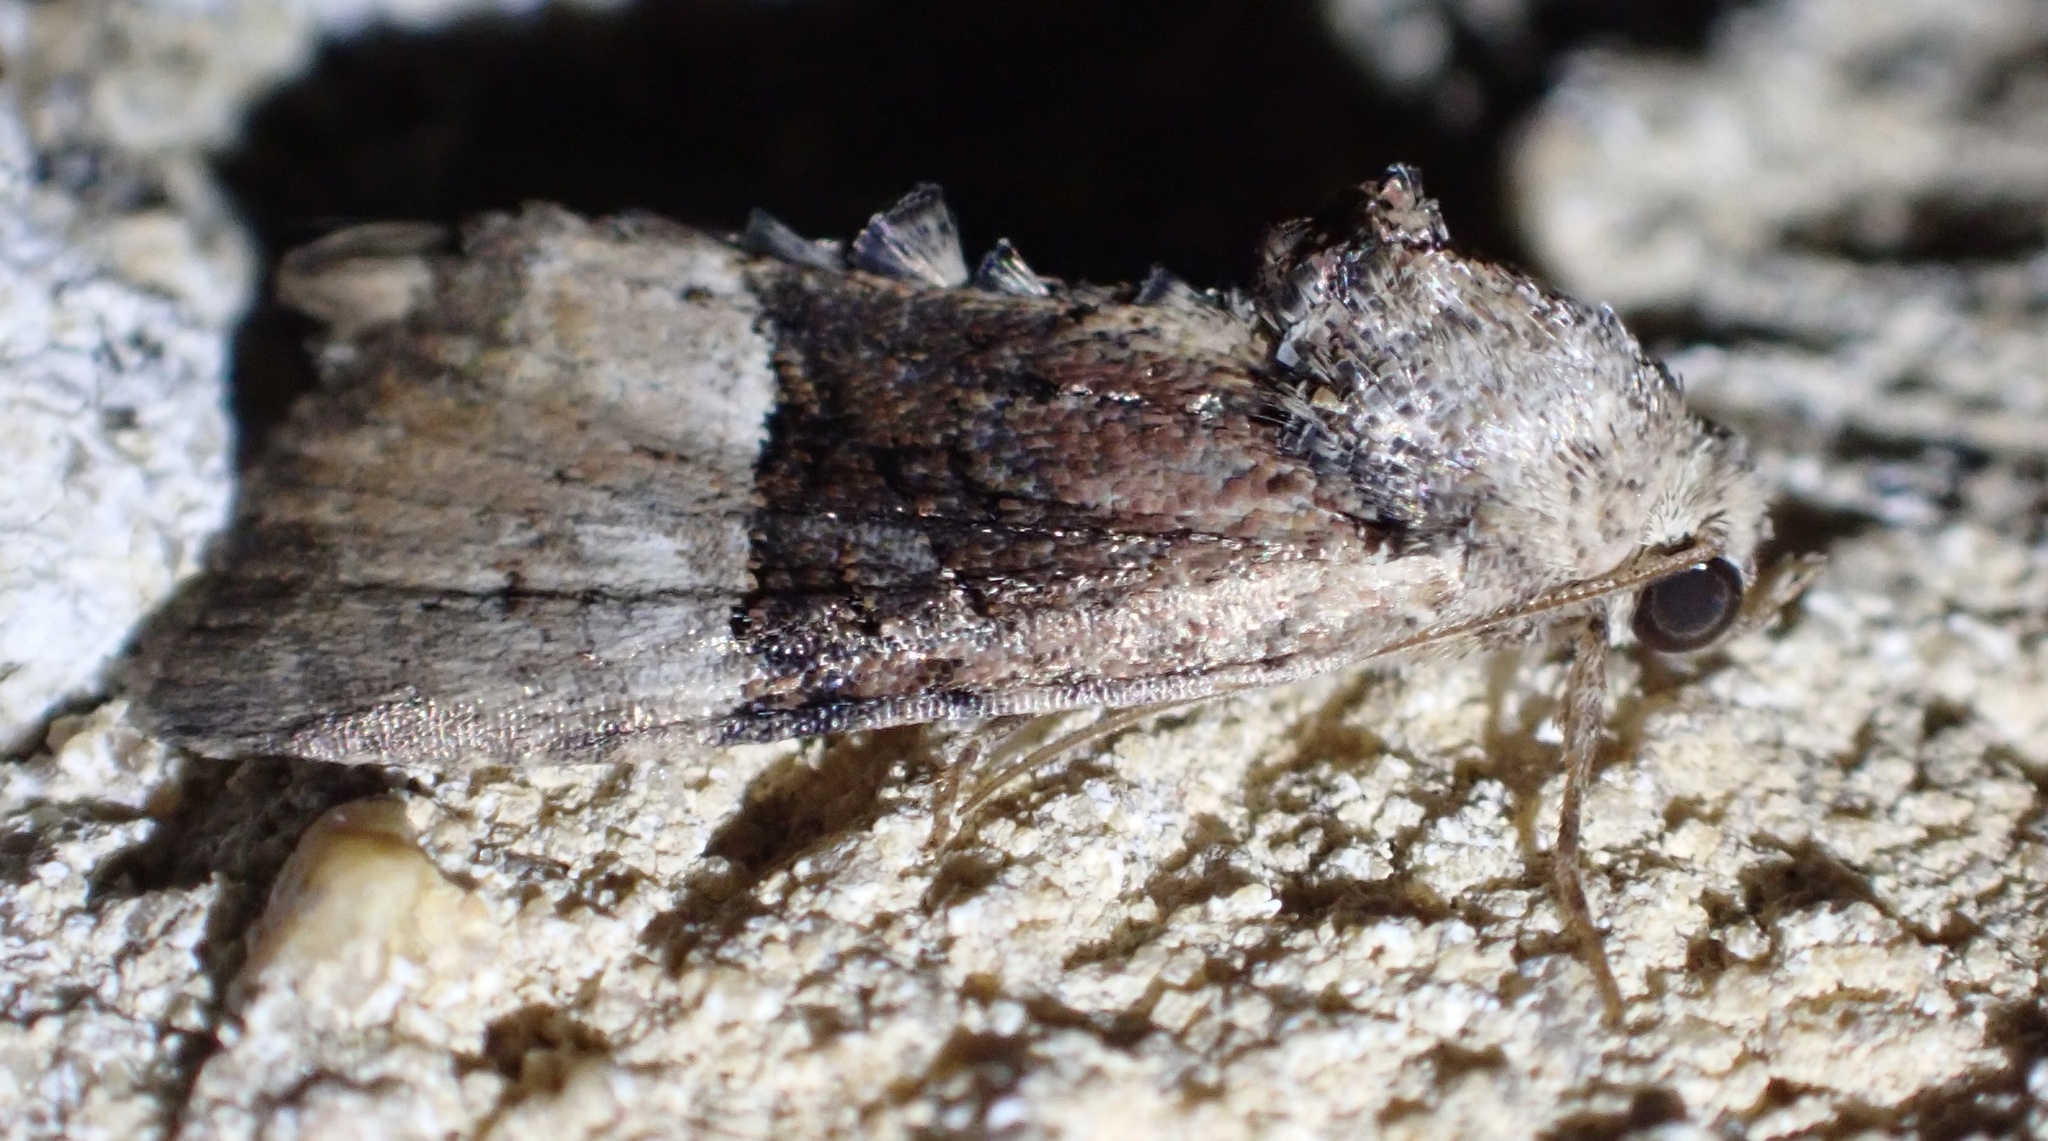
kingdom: Animalia
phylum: Arthropoda
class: Insecta
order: Lepidoptera
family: Noctuidae
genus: Mesoligia
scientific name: Mesoligia furuncula
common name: Cloaked minor
